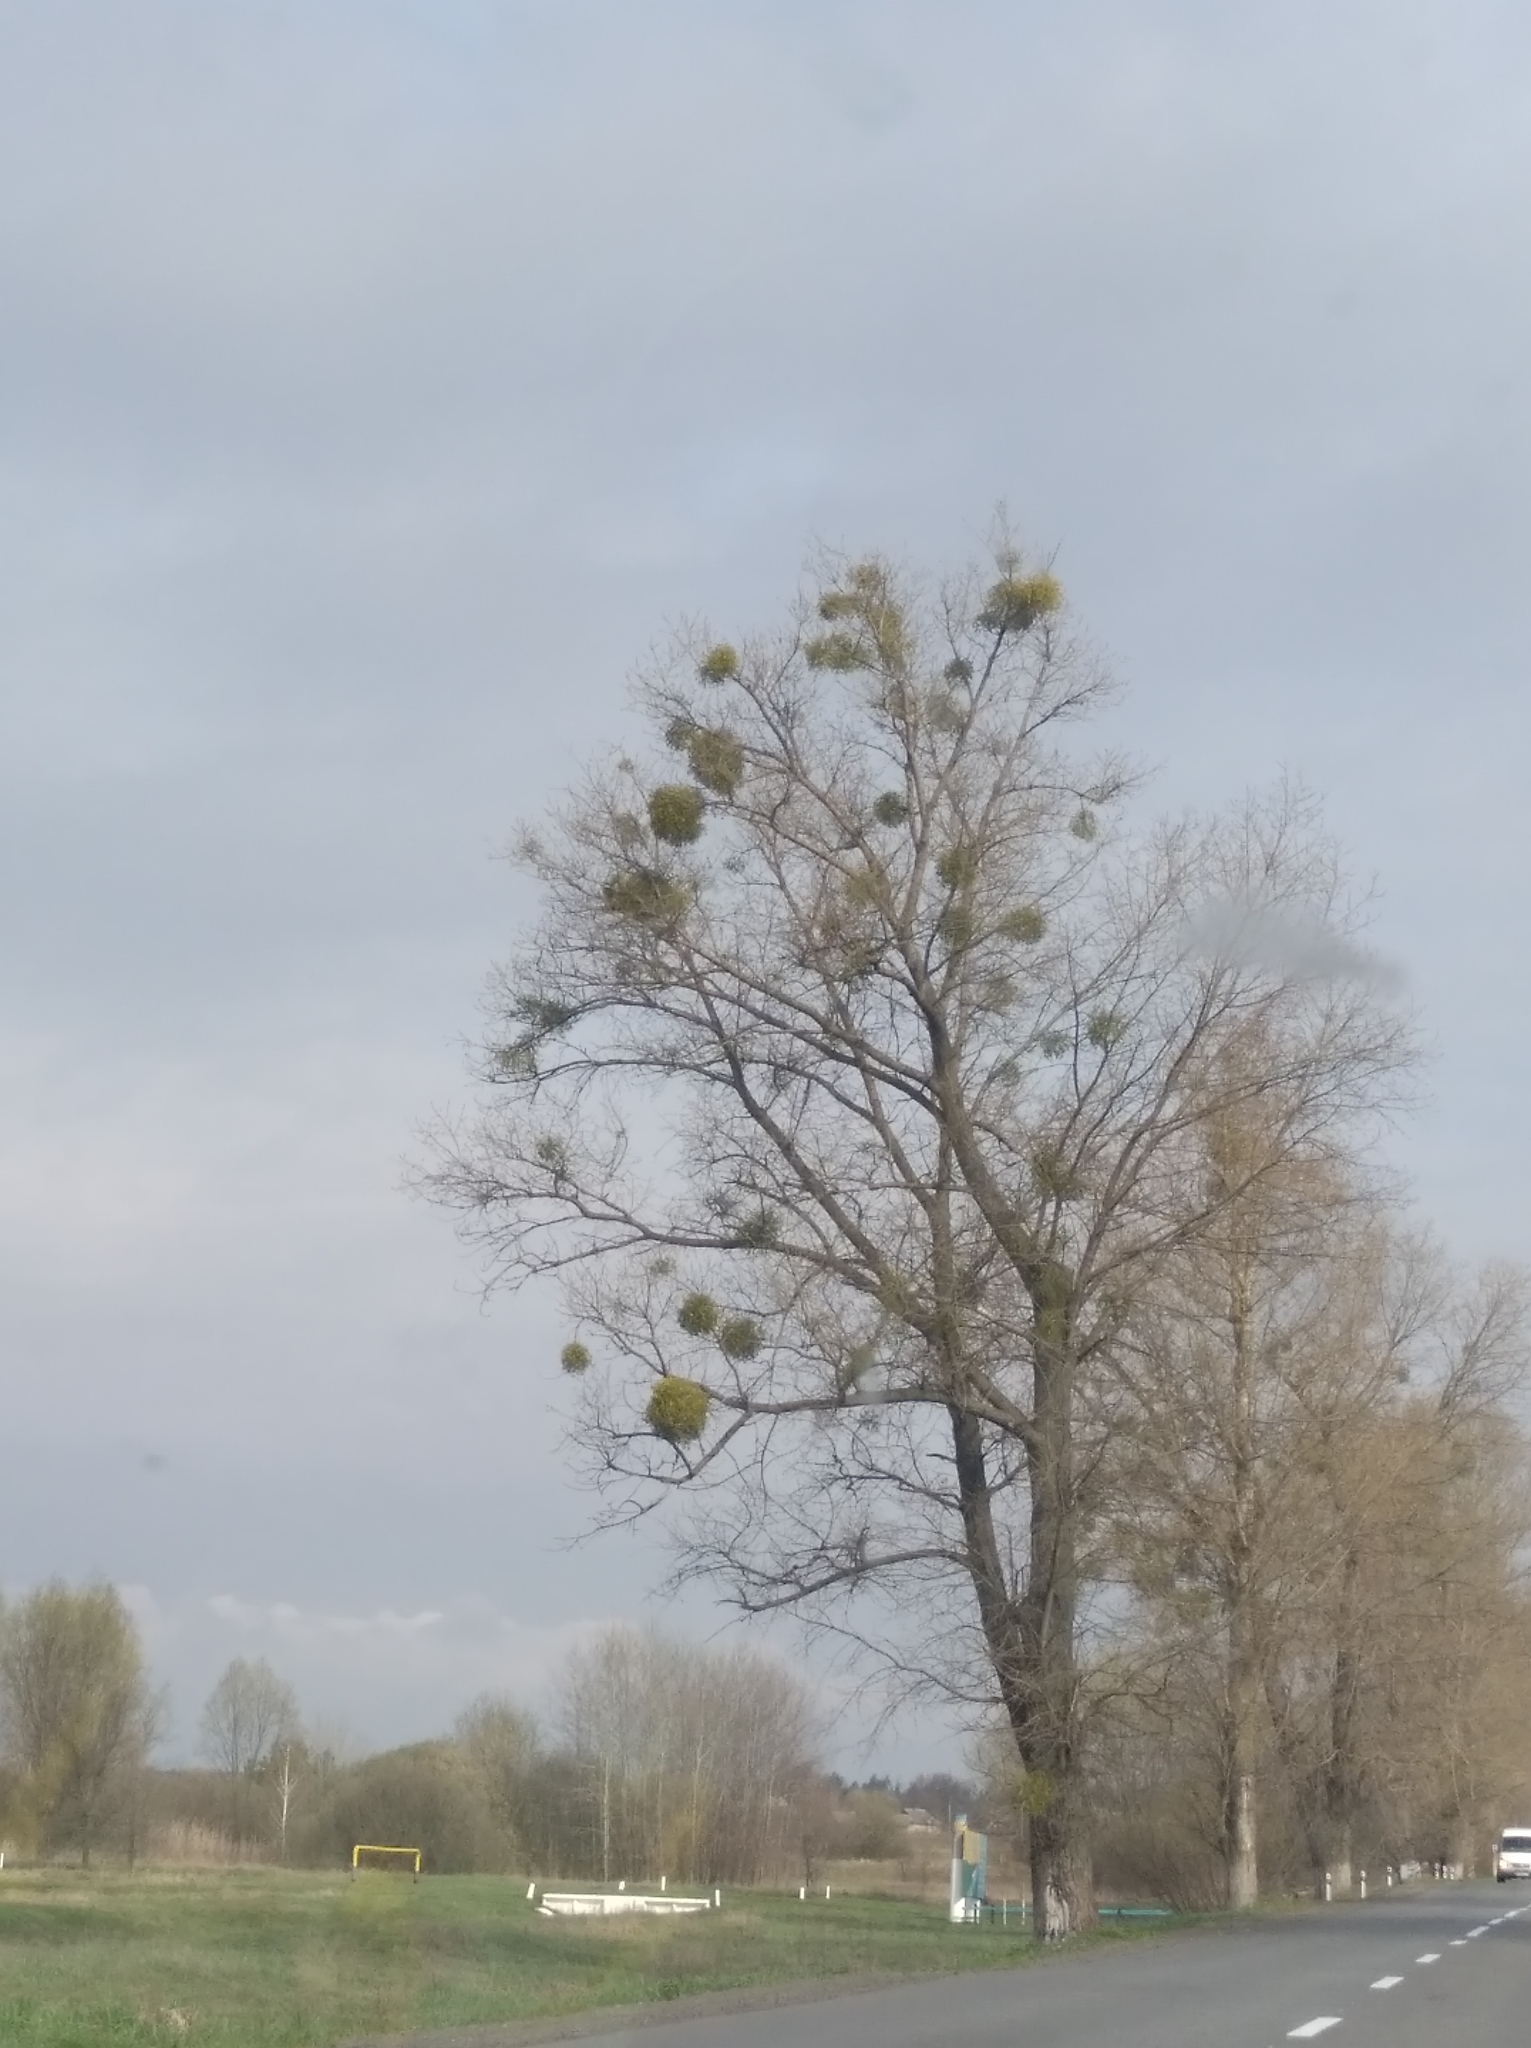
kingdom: Plantae
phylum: Tracheophyta
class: Magnoliopsida
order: Santalales
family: Viscaceae
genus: Viscum
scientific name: Viscum album
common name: Mistletoe
